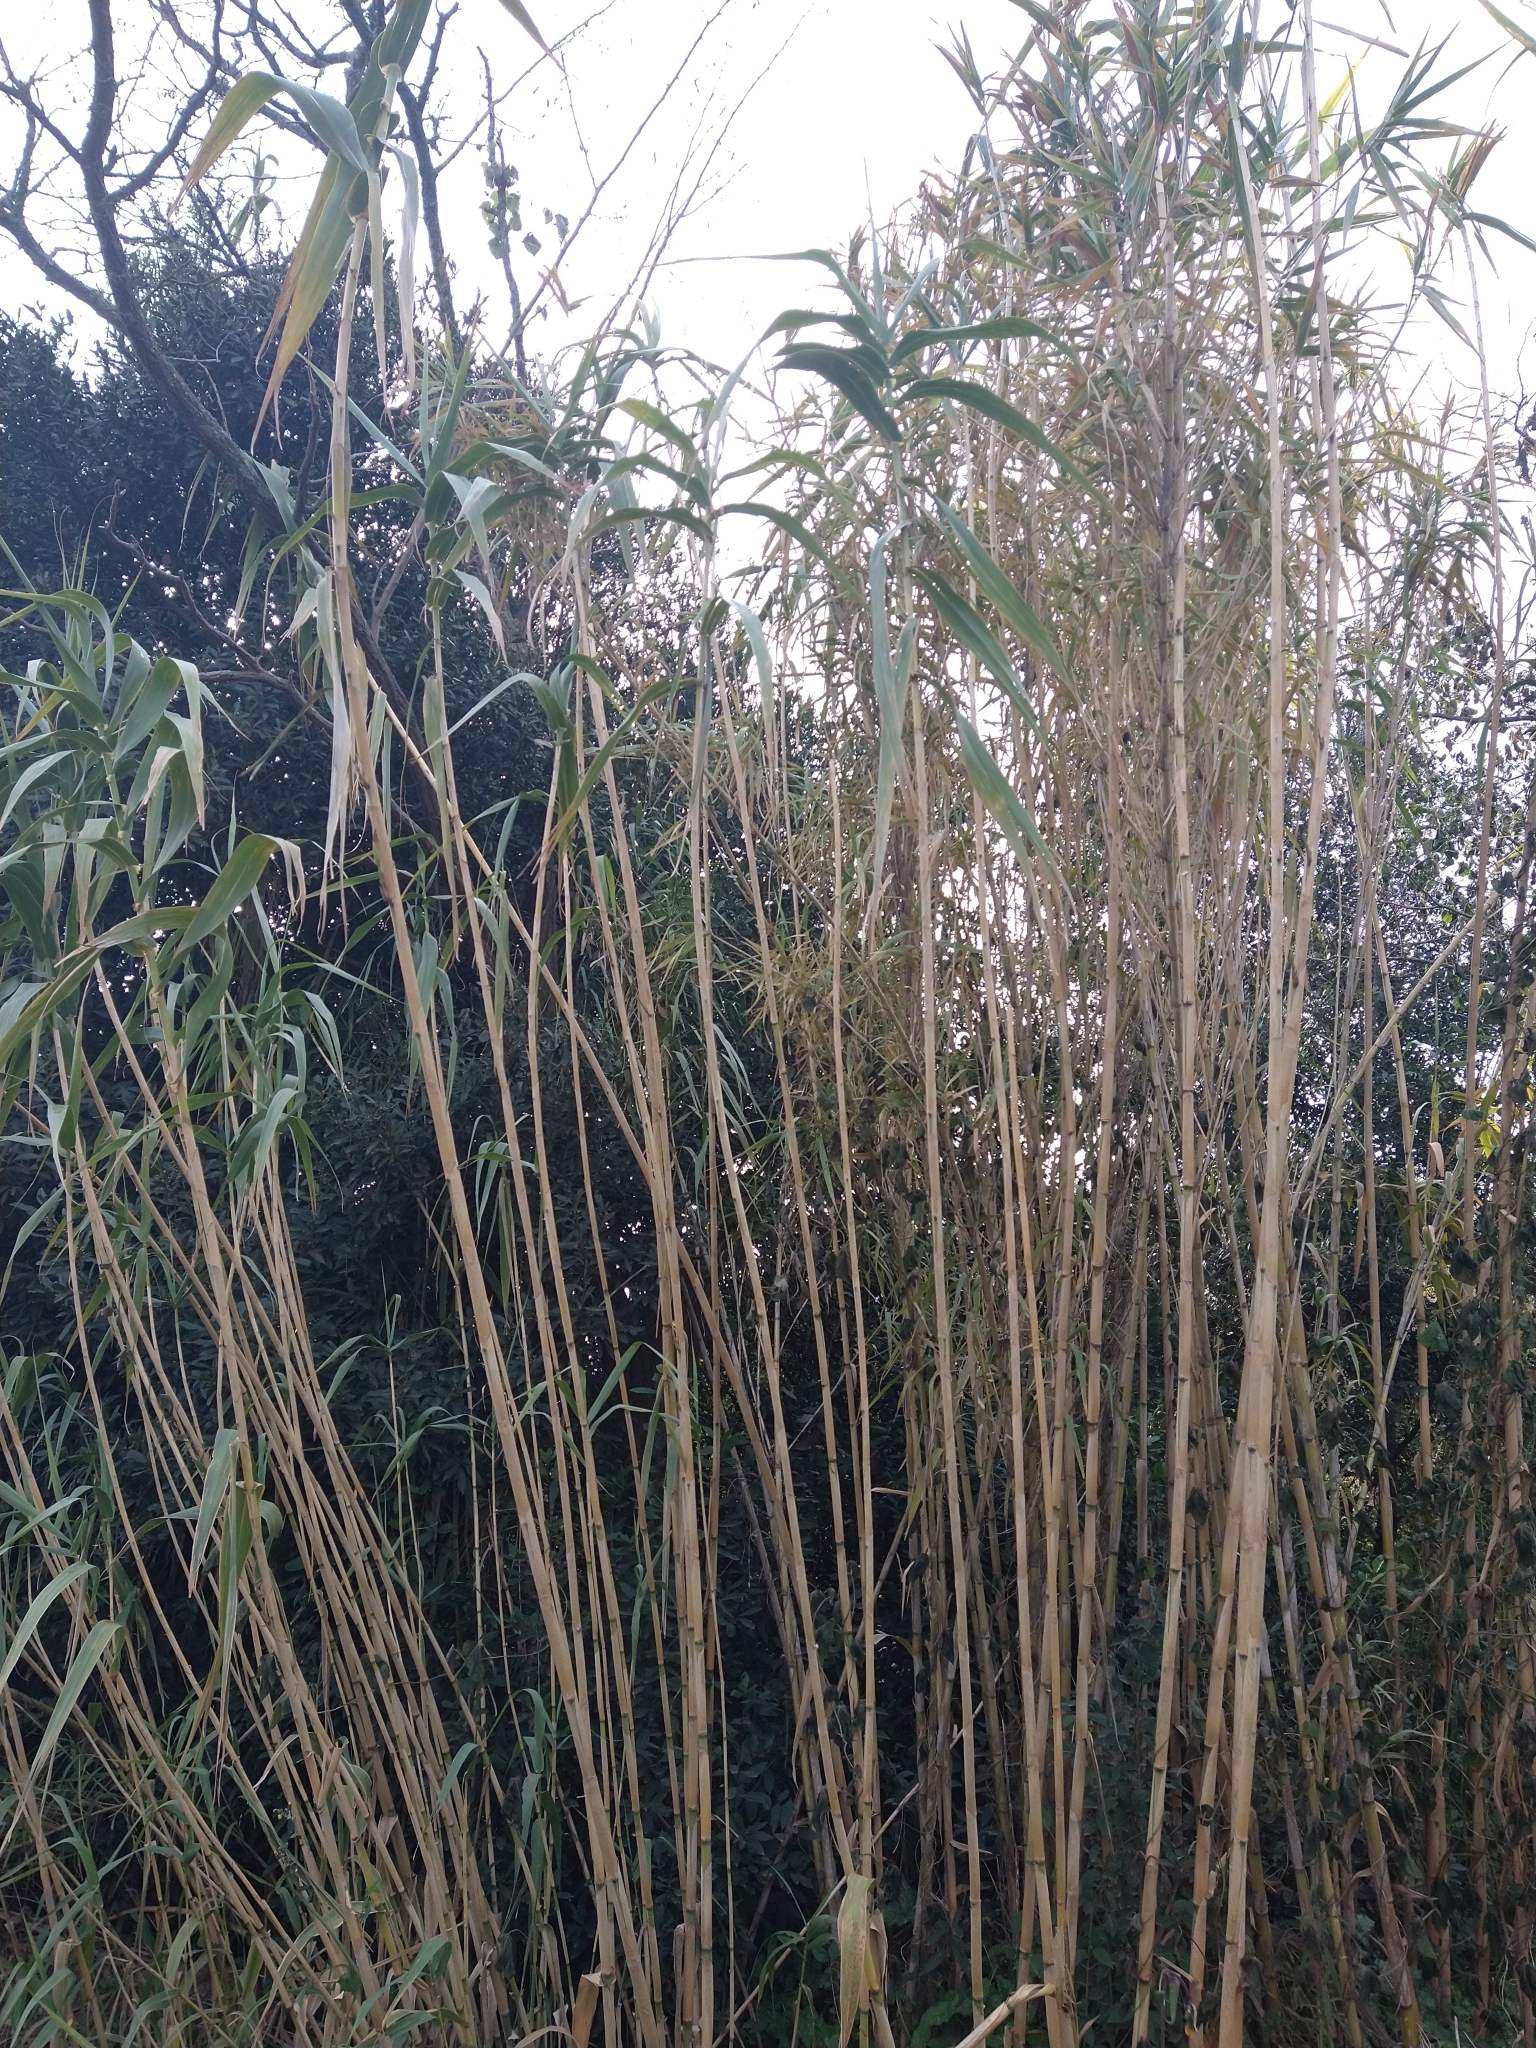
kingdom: Plantae
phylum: Tracheophyta
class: Liliopsida
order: Poales
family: Poaceae
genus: Arundo
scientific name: Arundo donax
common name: Giant reed
